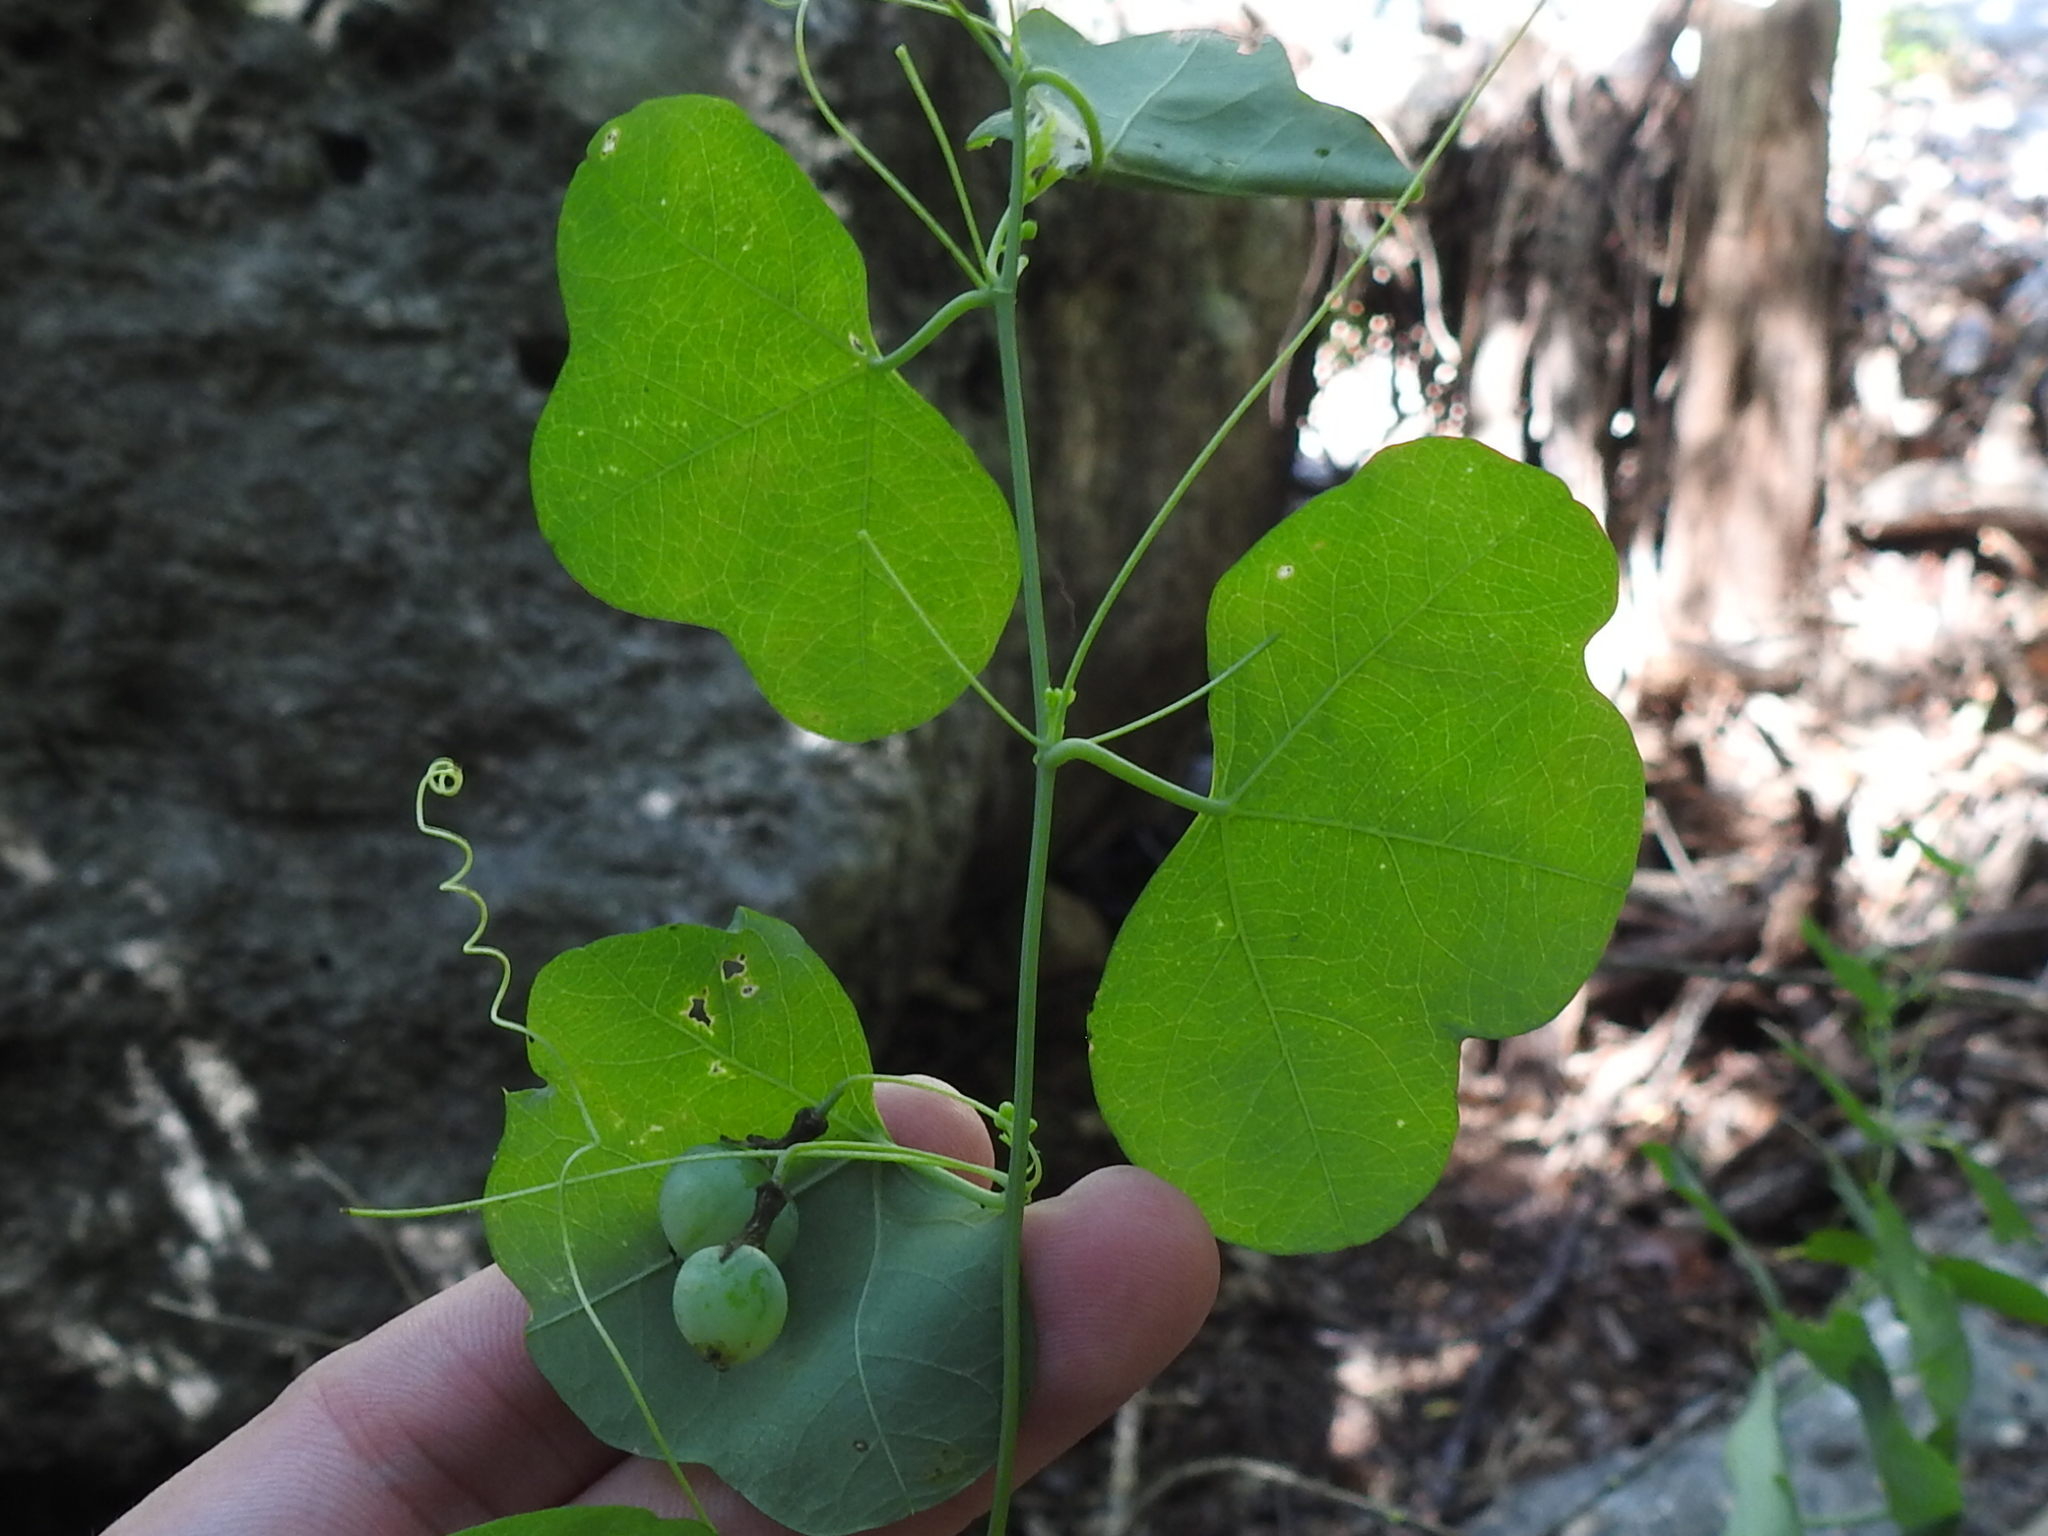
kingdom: Plantae
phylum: Tracheophyta
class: Magnoliopsida
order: Malpighiales
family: Passifloraceae
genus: Passiflora
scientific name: Passiflora lutea
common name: Yellow passionflower
